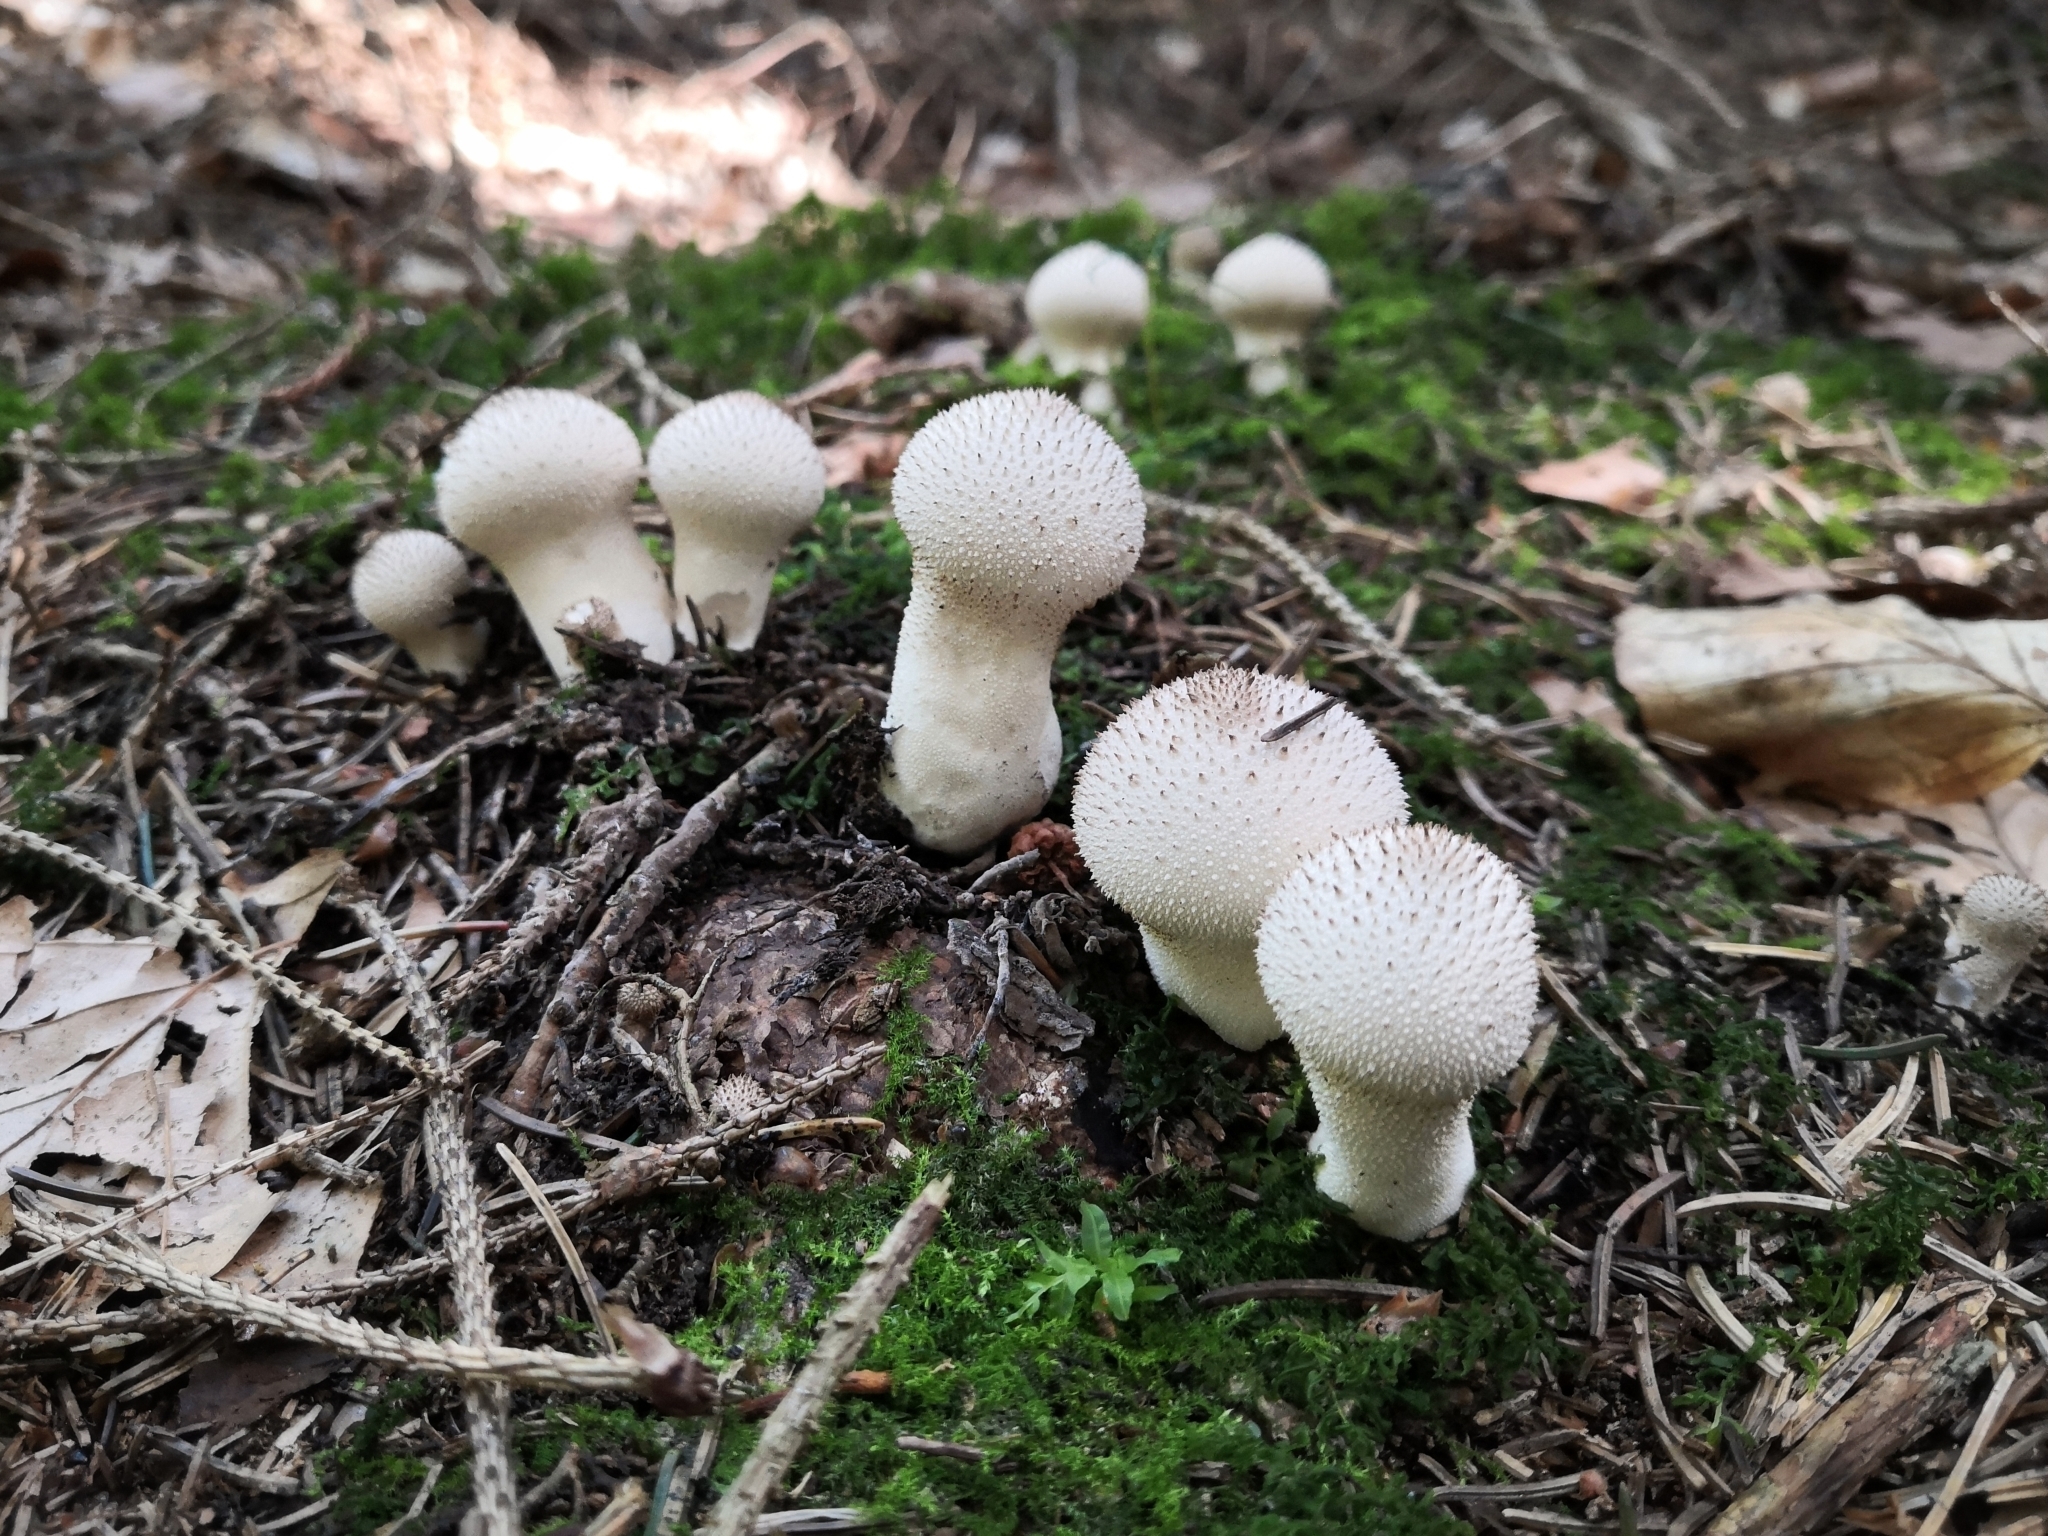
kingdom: Fungi
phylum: Basidiomycota
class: Agaricomycetes
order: Agaricales
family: Lycoperdaceae
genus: Lycoperdon
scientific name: Lycoperdon perlatum
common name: Common puffball
